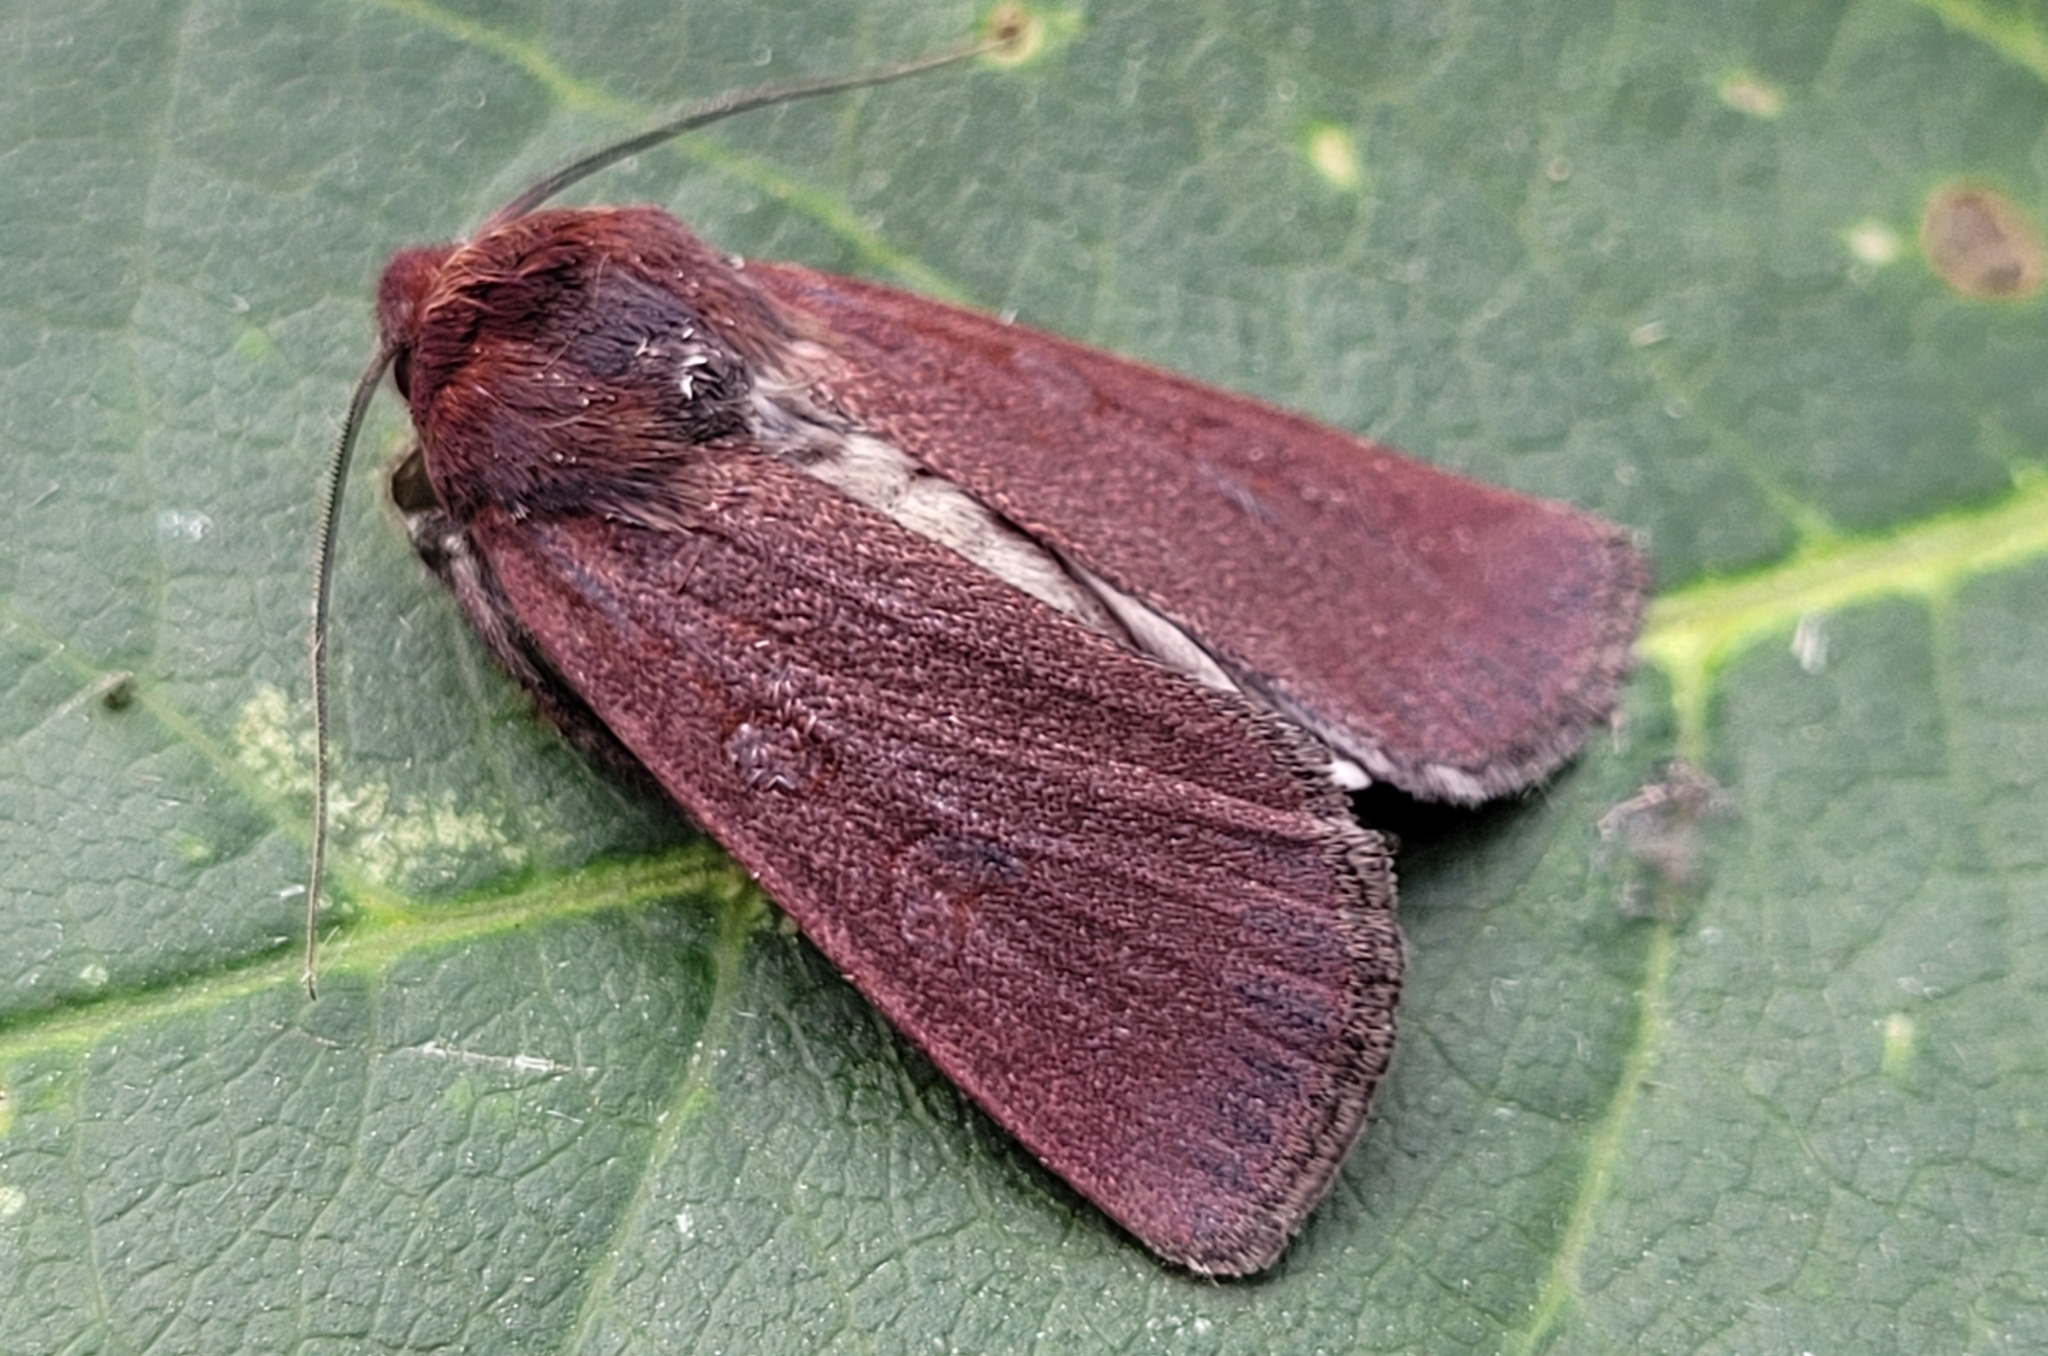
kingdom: Animalia
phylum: Arthropoda
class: Insecta
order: Lepidoptera
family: Noctuidae
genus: Euxoa
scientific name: Euxoa perpolita
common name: Polished dart
